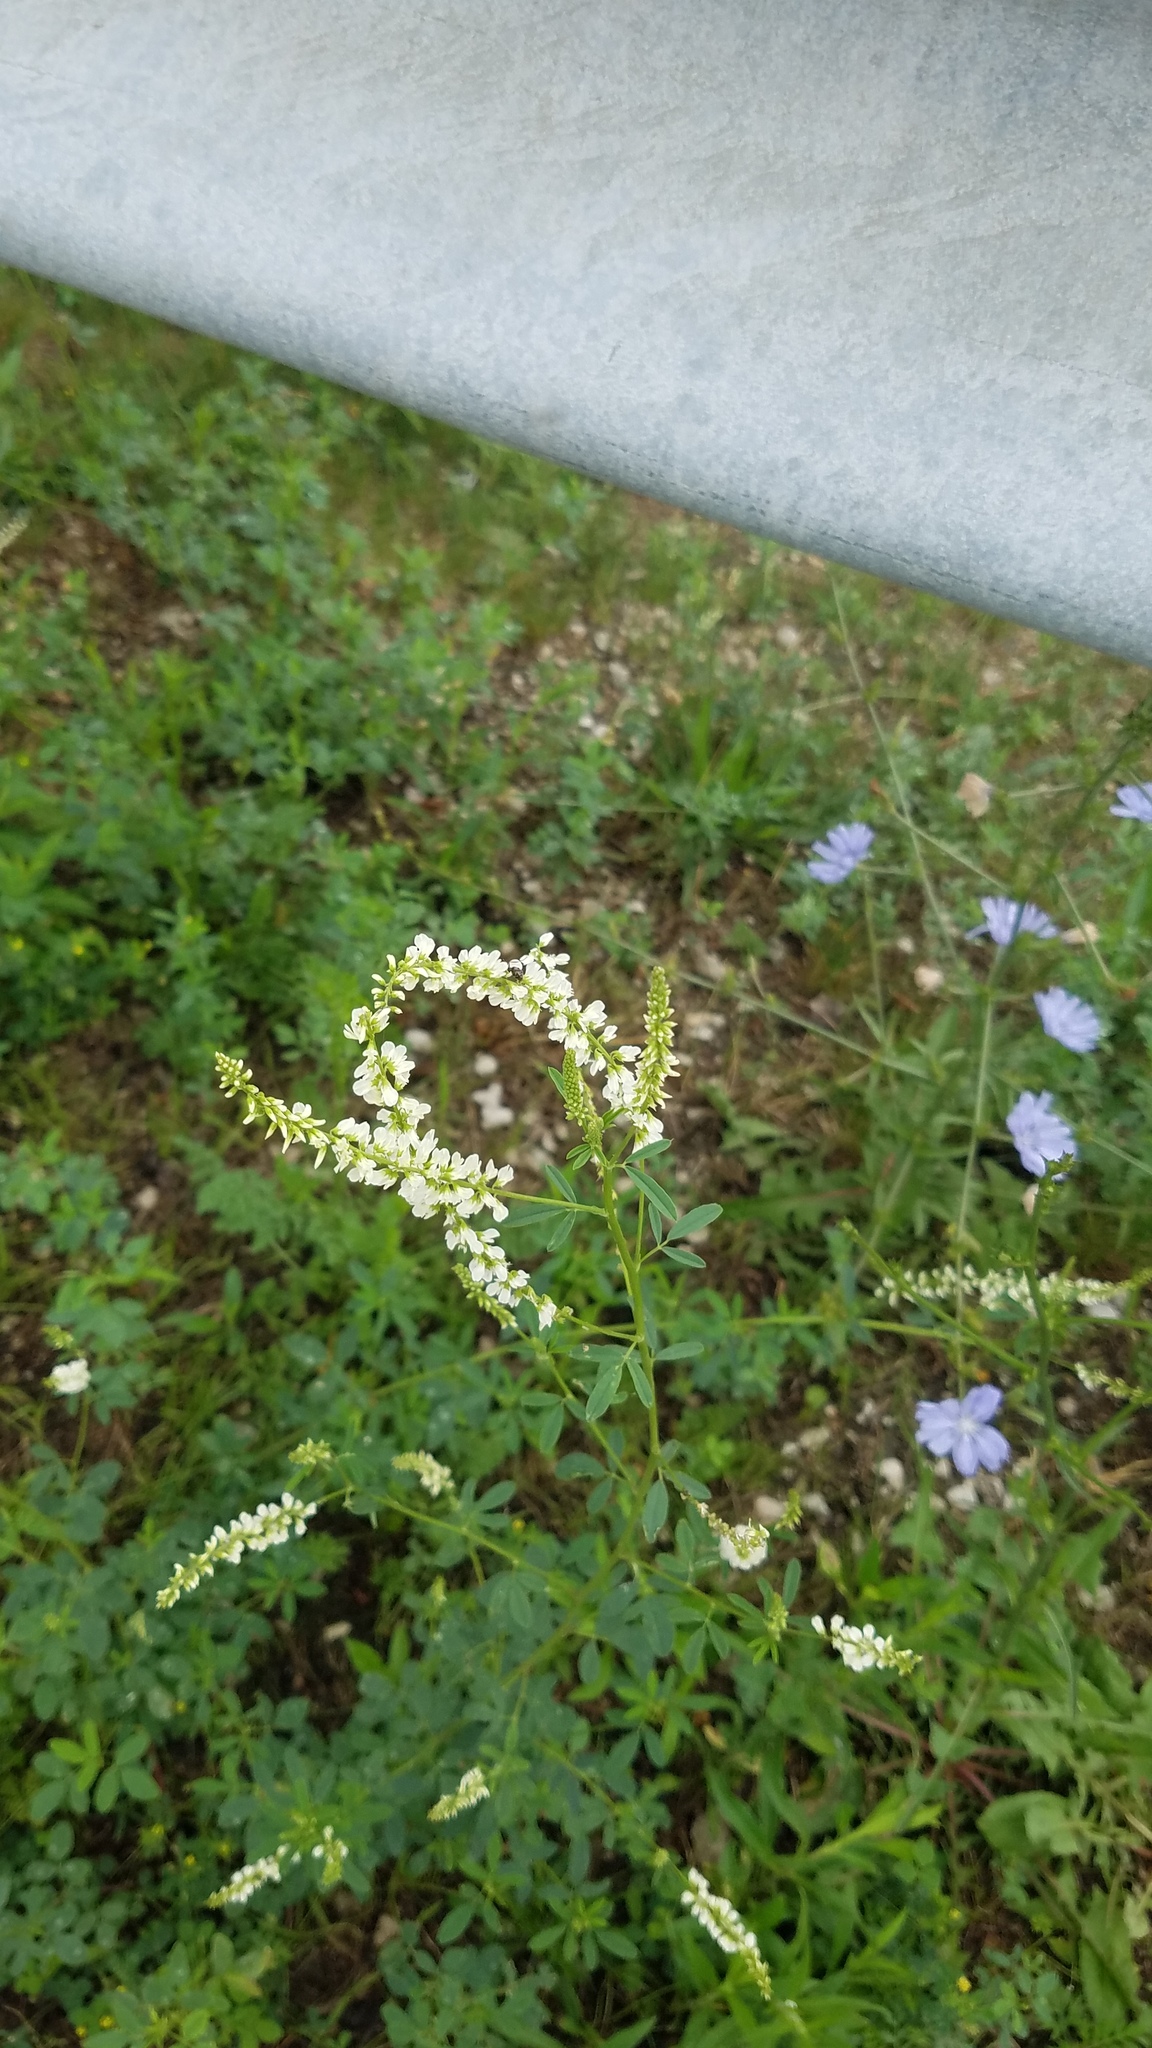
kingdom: Plantae
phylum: Tracheophyta
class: Magnoliopsida
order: Fabales
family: Fabaceae
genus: Melilotus
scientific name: Melilotus albus
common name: White melilot
